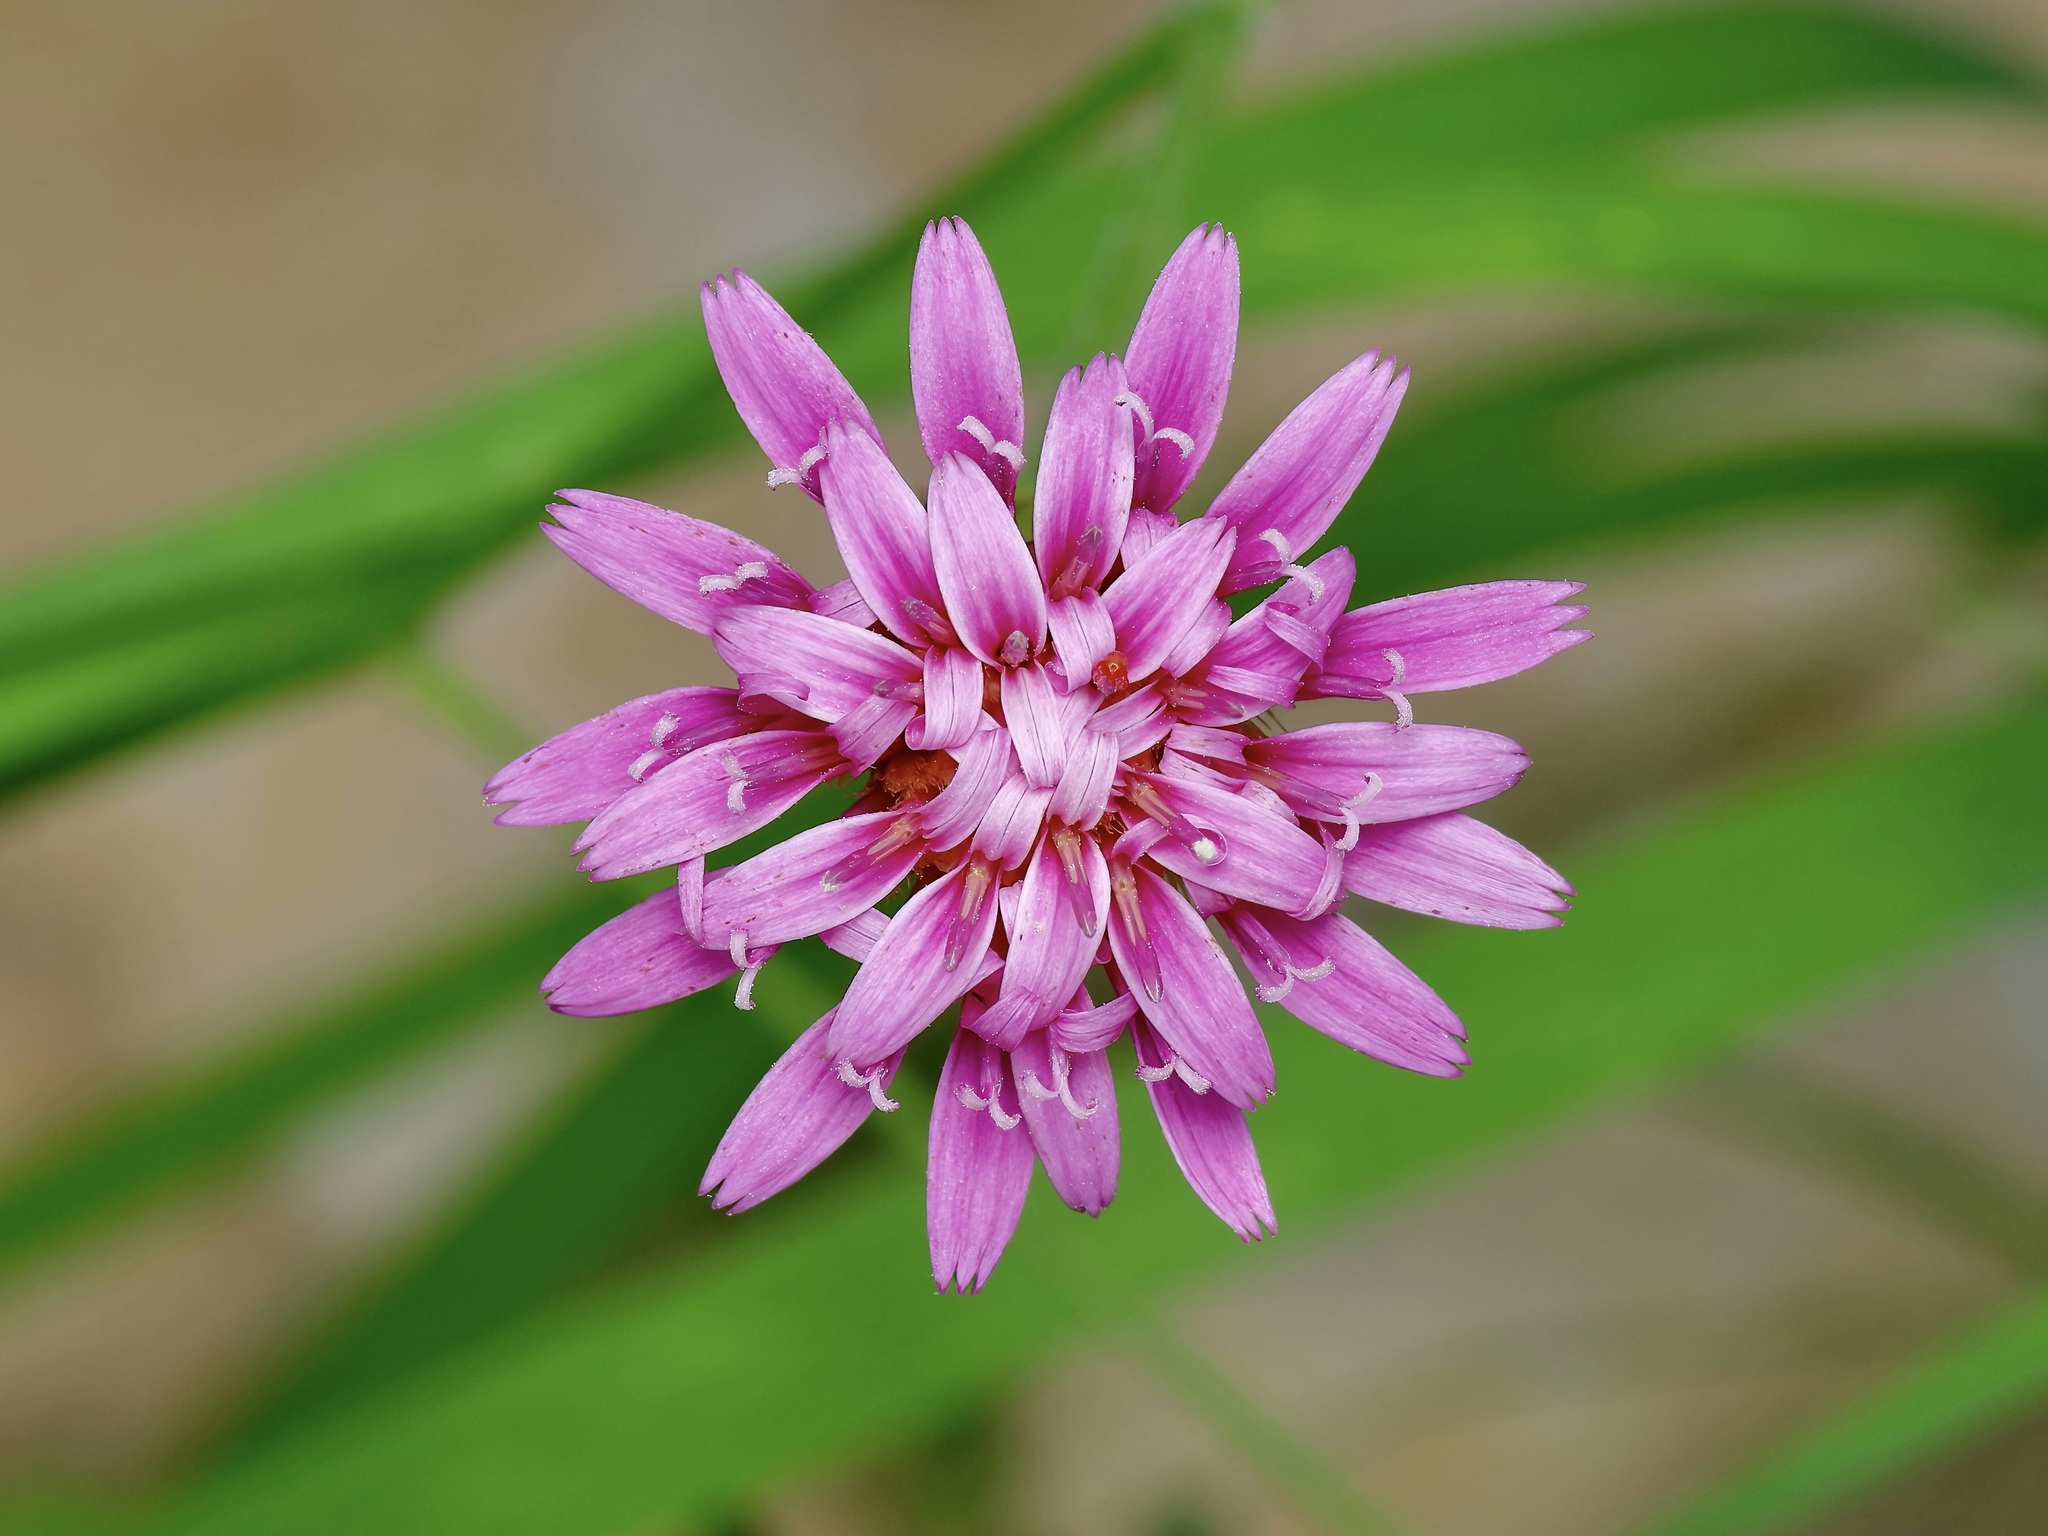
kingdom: Plantae
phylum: Tracheophyta
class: Magnoliopsida
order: Asterales
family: Asteraceae
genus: Acourtia
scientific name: Acourtia runcinata
